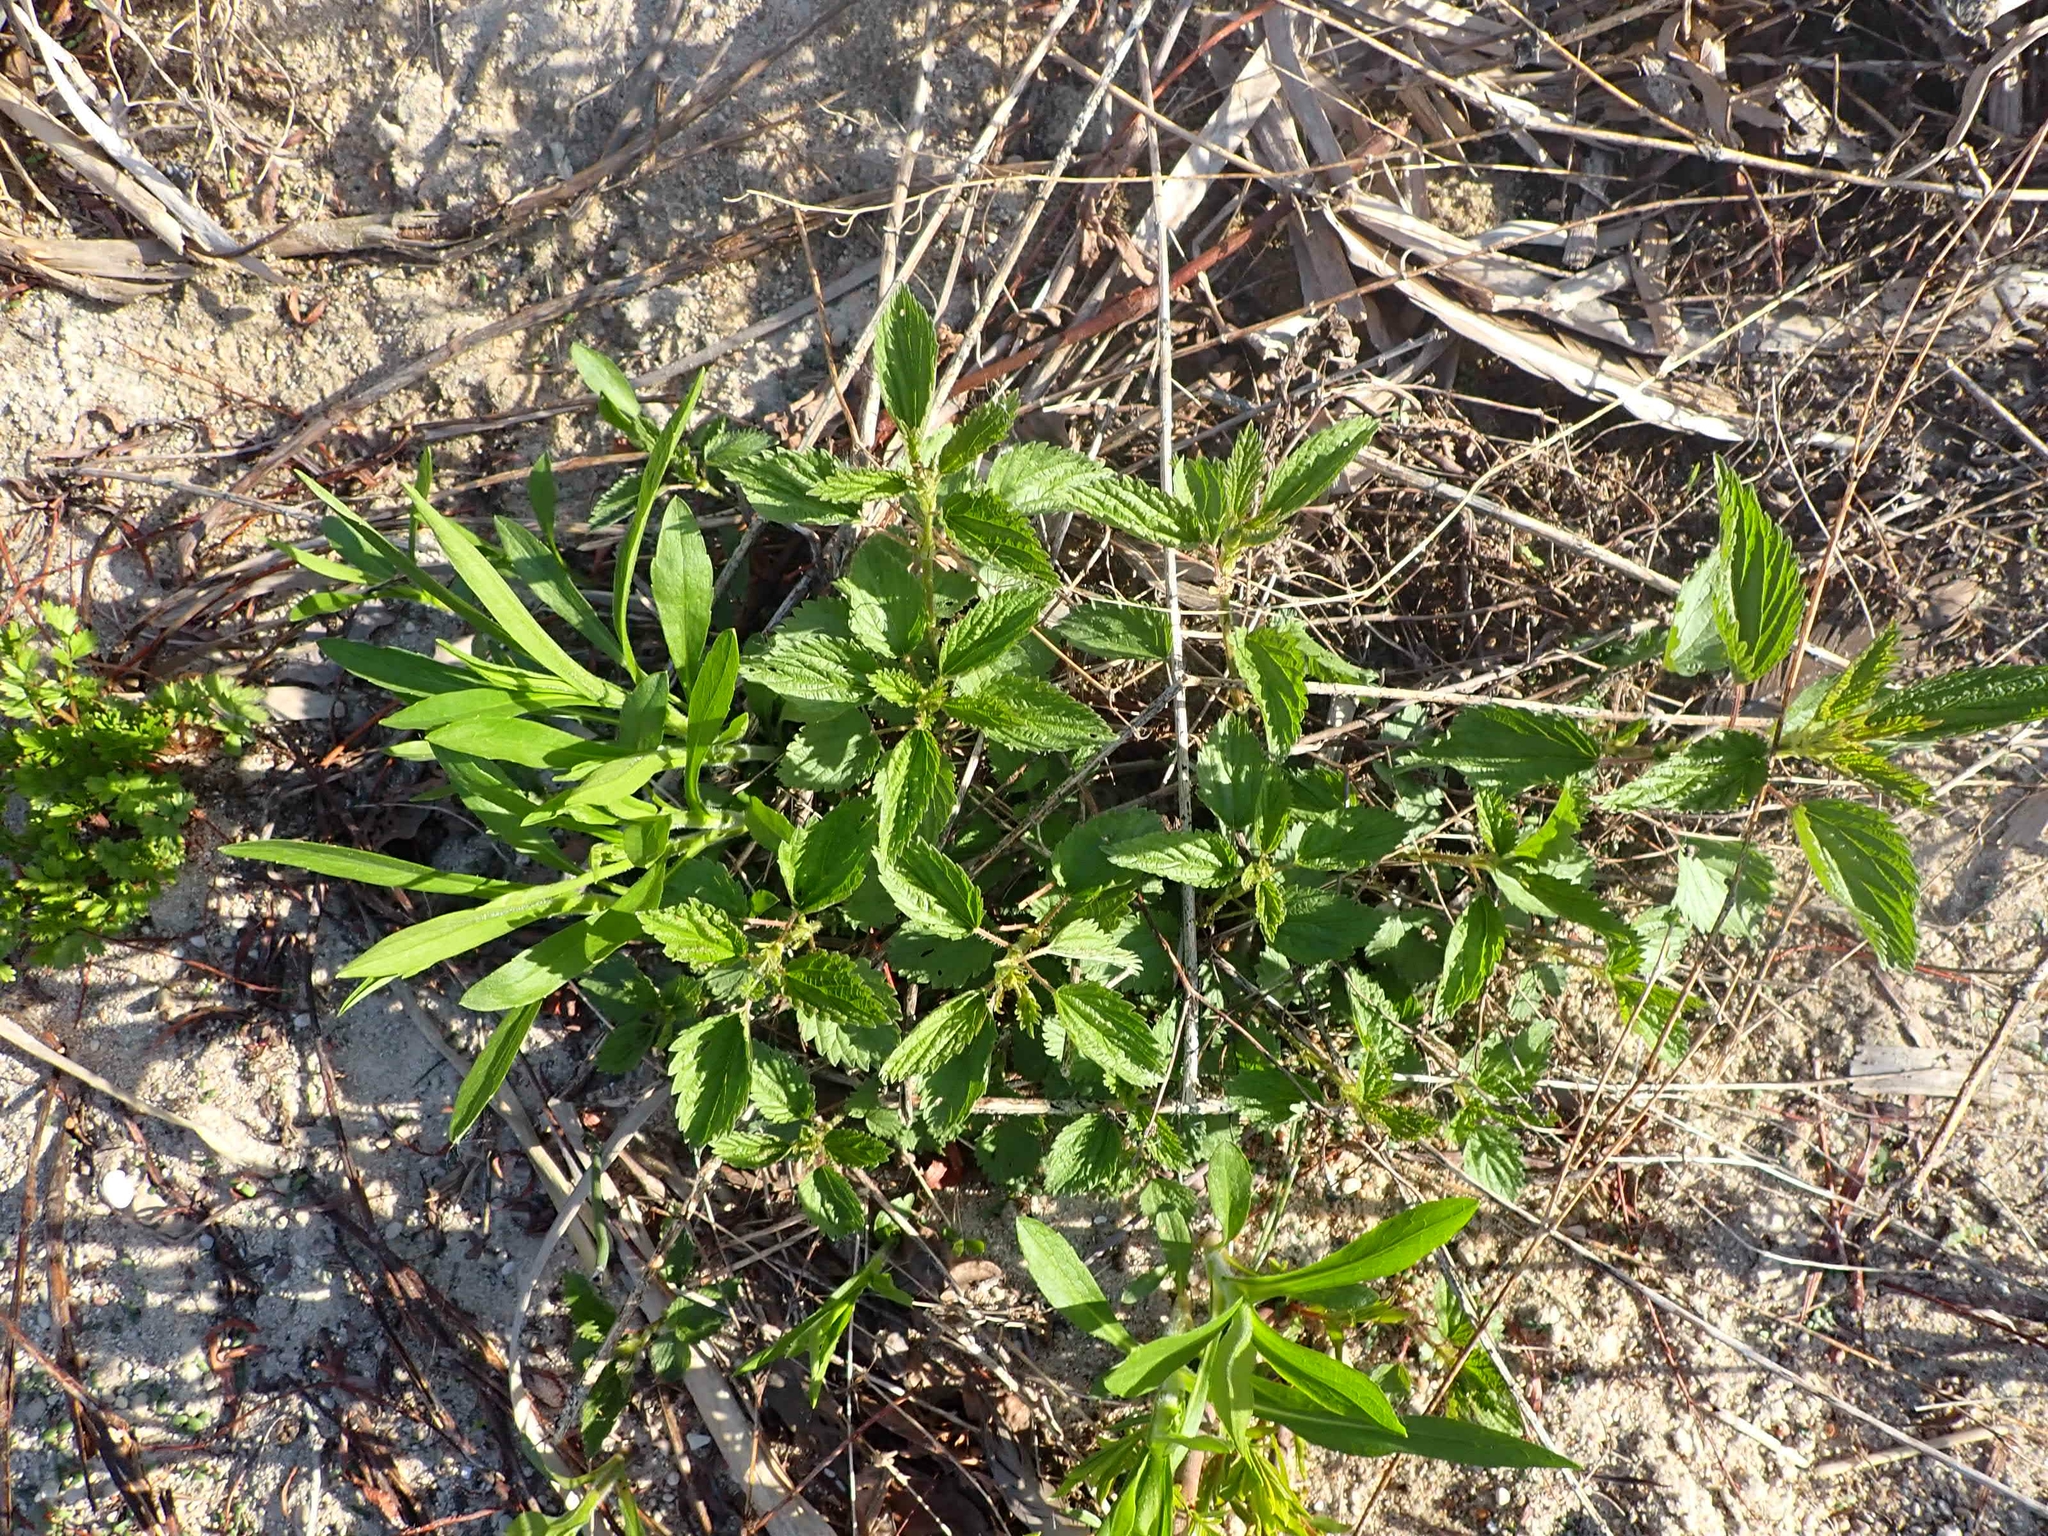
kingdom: Plantae
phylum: Tracheophyta
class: Magnoliopsida
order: Rosales
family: Urticaceae
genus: Urtica
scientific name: Urtica gracilis
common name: Slender stinging nettle
